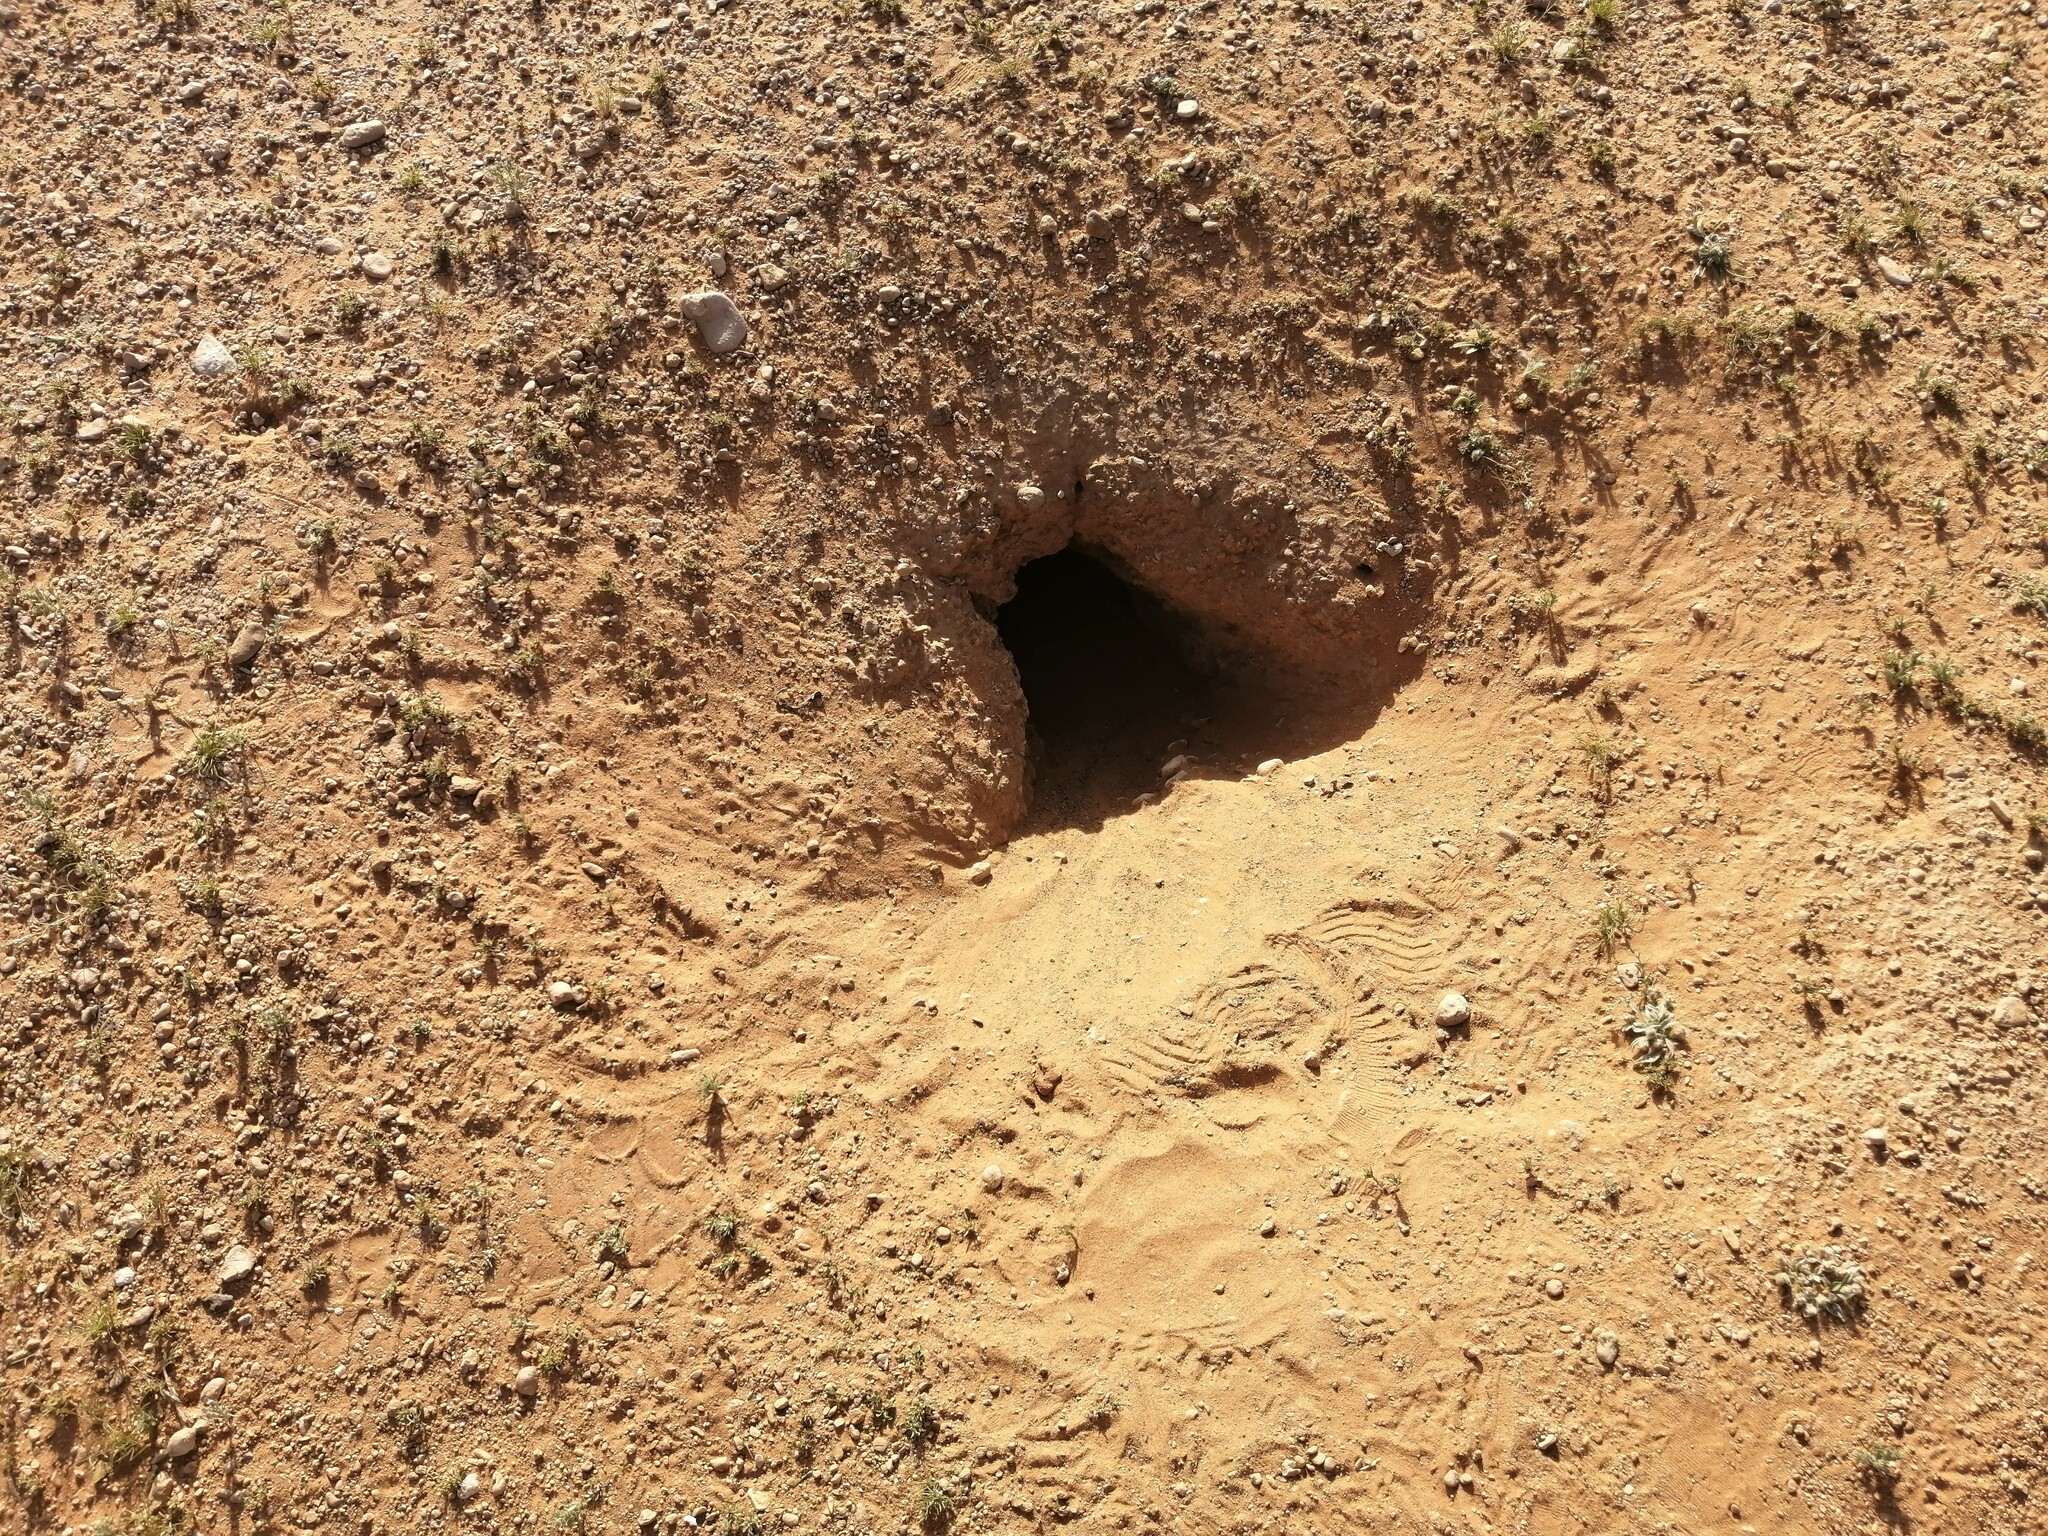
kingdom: Animalia
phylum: Chordata
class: Squamata
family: Agamidae
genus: Uromastyx
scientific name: Uromastyx aegyptia
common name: Egyptian mastigure
